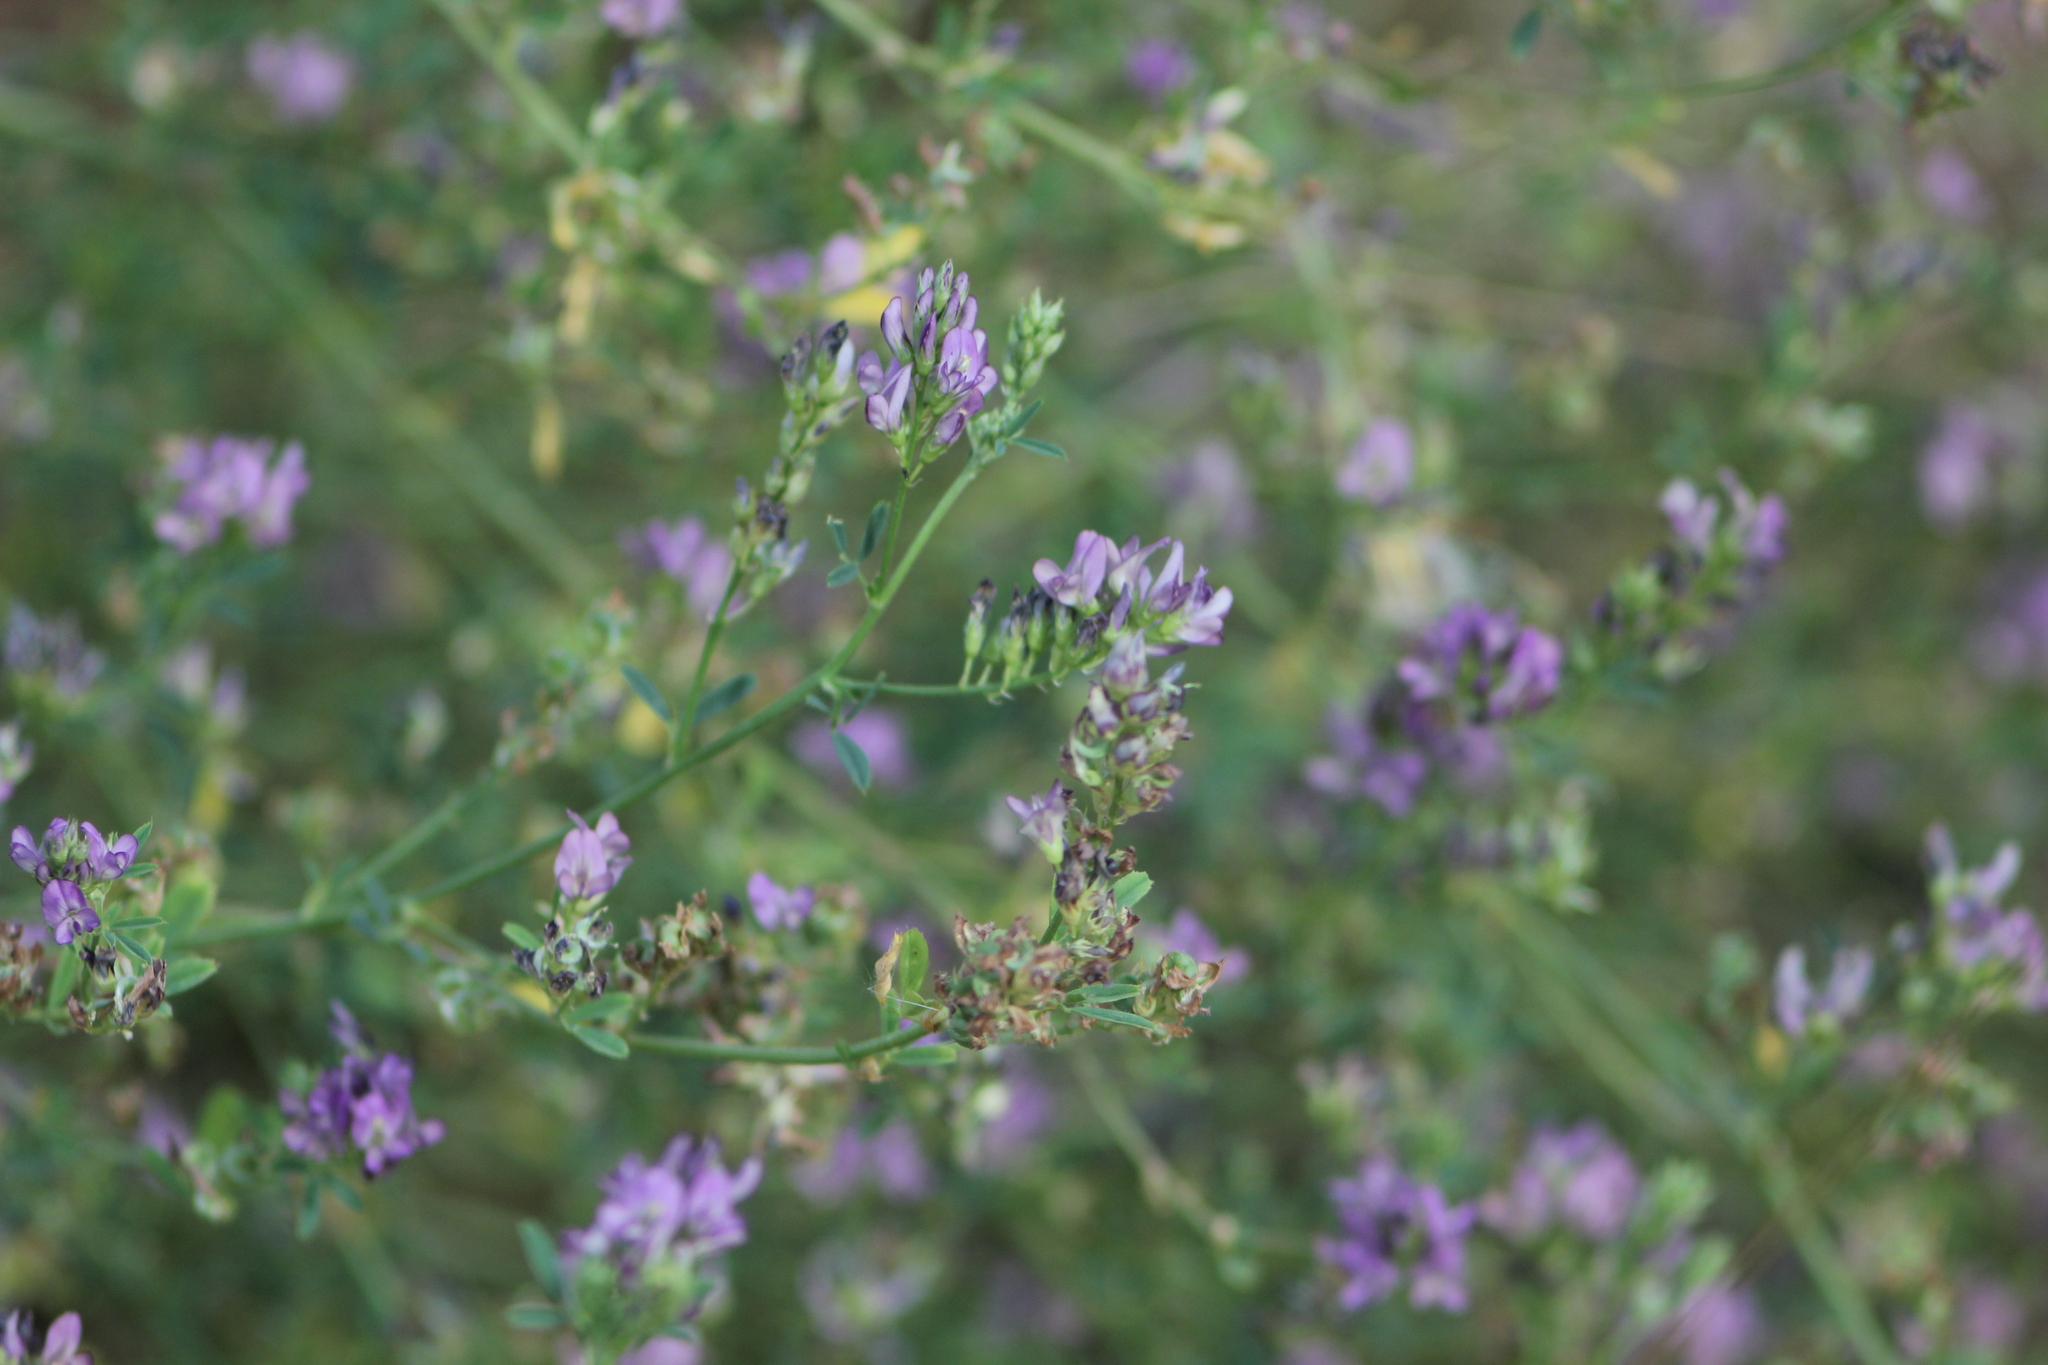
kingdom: Plantae
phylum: Tracheophyta
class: Magnoliopsida
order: Fabales
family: Fabaceae
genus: Medicago
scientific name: Medicago sativa
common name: Alfalfa
